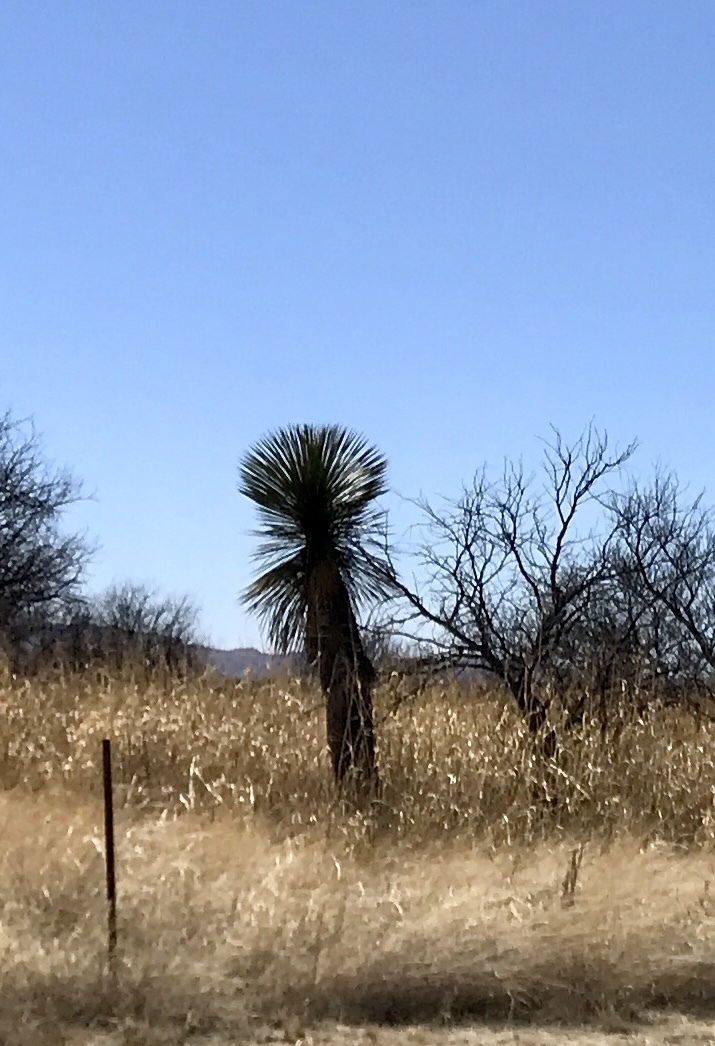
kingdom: Plantae
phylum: Tracheophyta
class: Liliopsida
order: Asparagales
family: Asparagaceae
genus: Yucca
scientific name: Yucca elata
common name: Palmella
